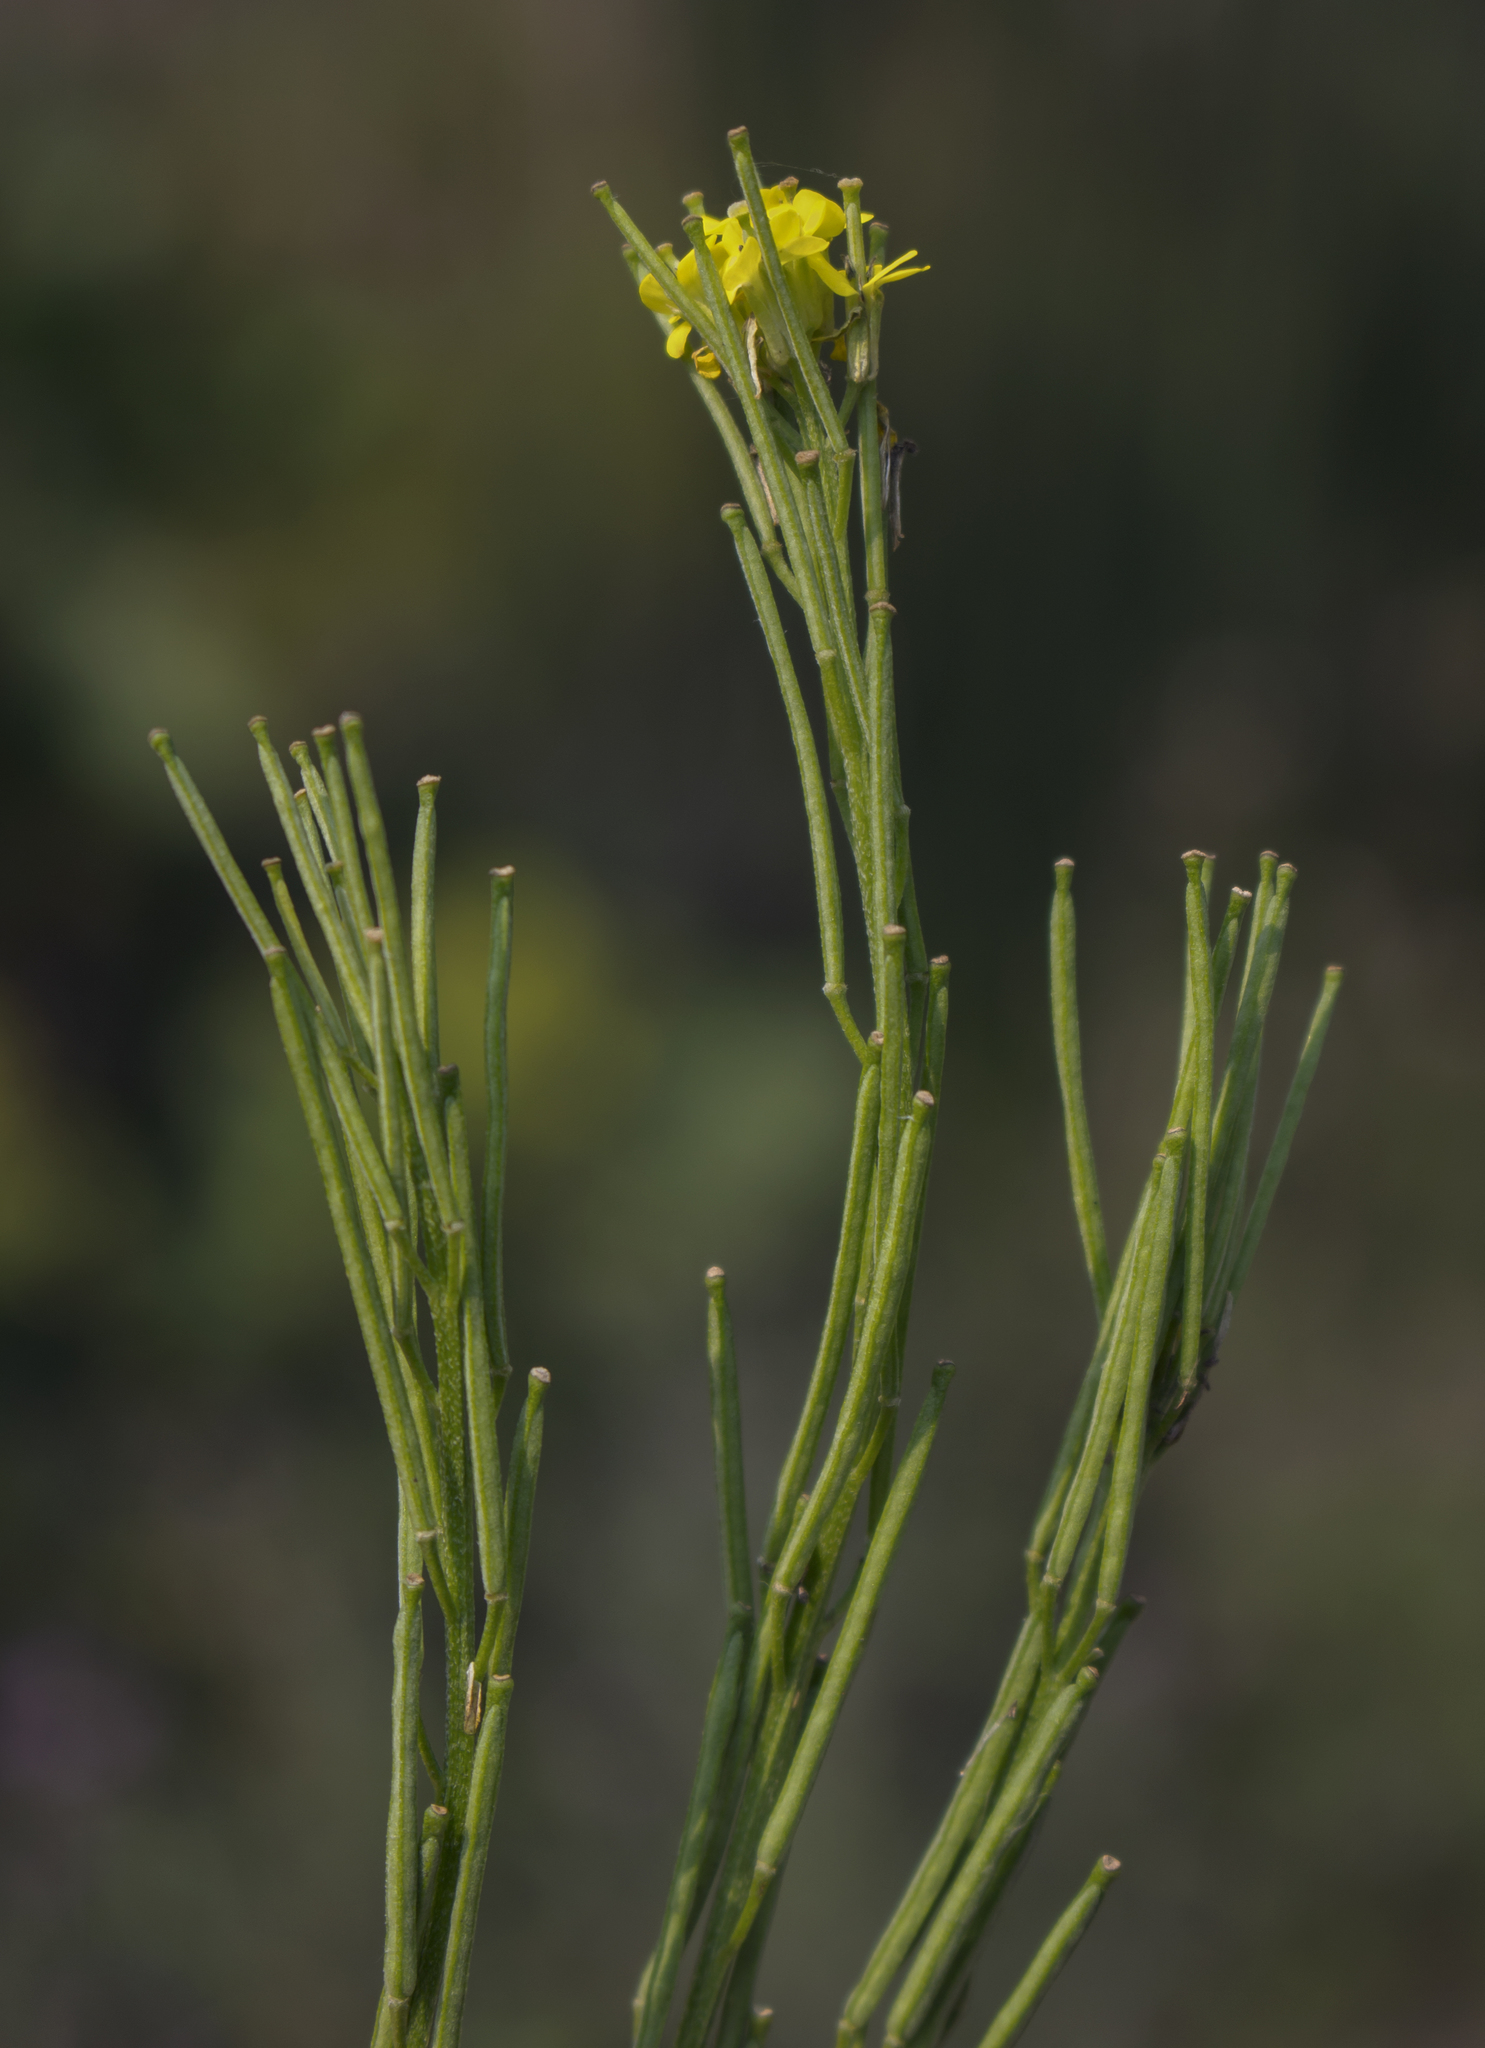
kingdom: Plantae
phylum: Tracheophyta
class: Magnoliopsida
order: Brassicales
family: Brassicaceae
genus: Erysimum
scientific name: Erysimum cheiranthoides
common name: Treacle mustard
